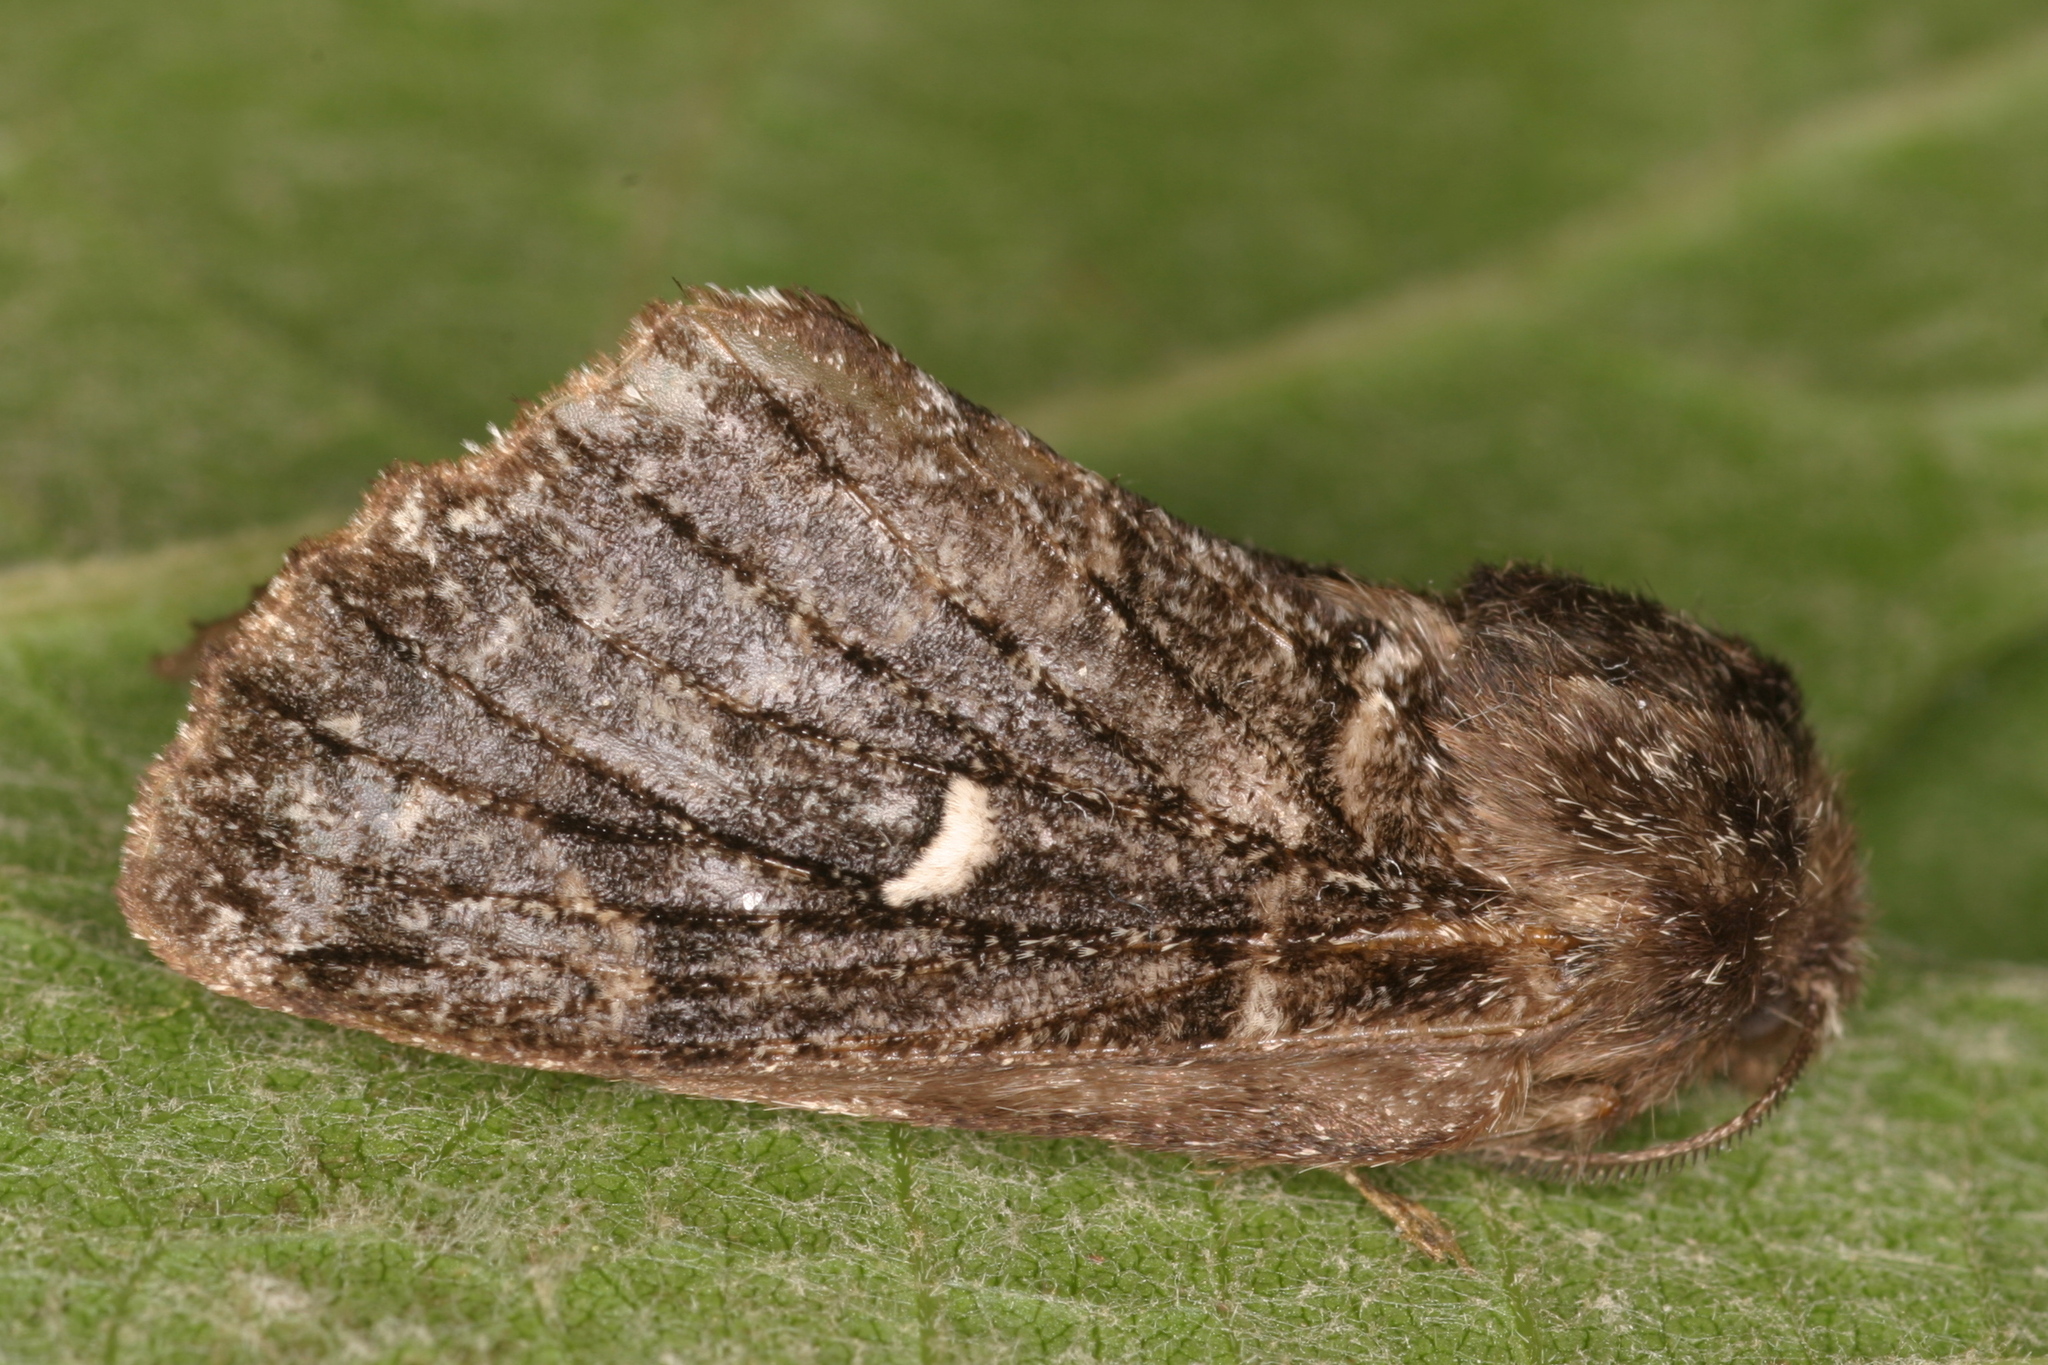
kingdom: Animalia
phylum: Arthropoda
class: Insecta
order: Lepidoptera
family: Lasiocampidae
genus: Cosmotriche
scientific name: Cosmotriche lobulina
